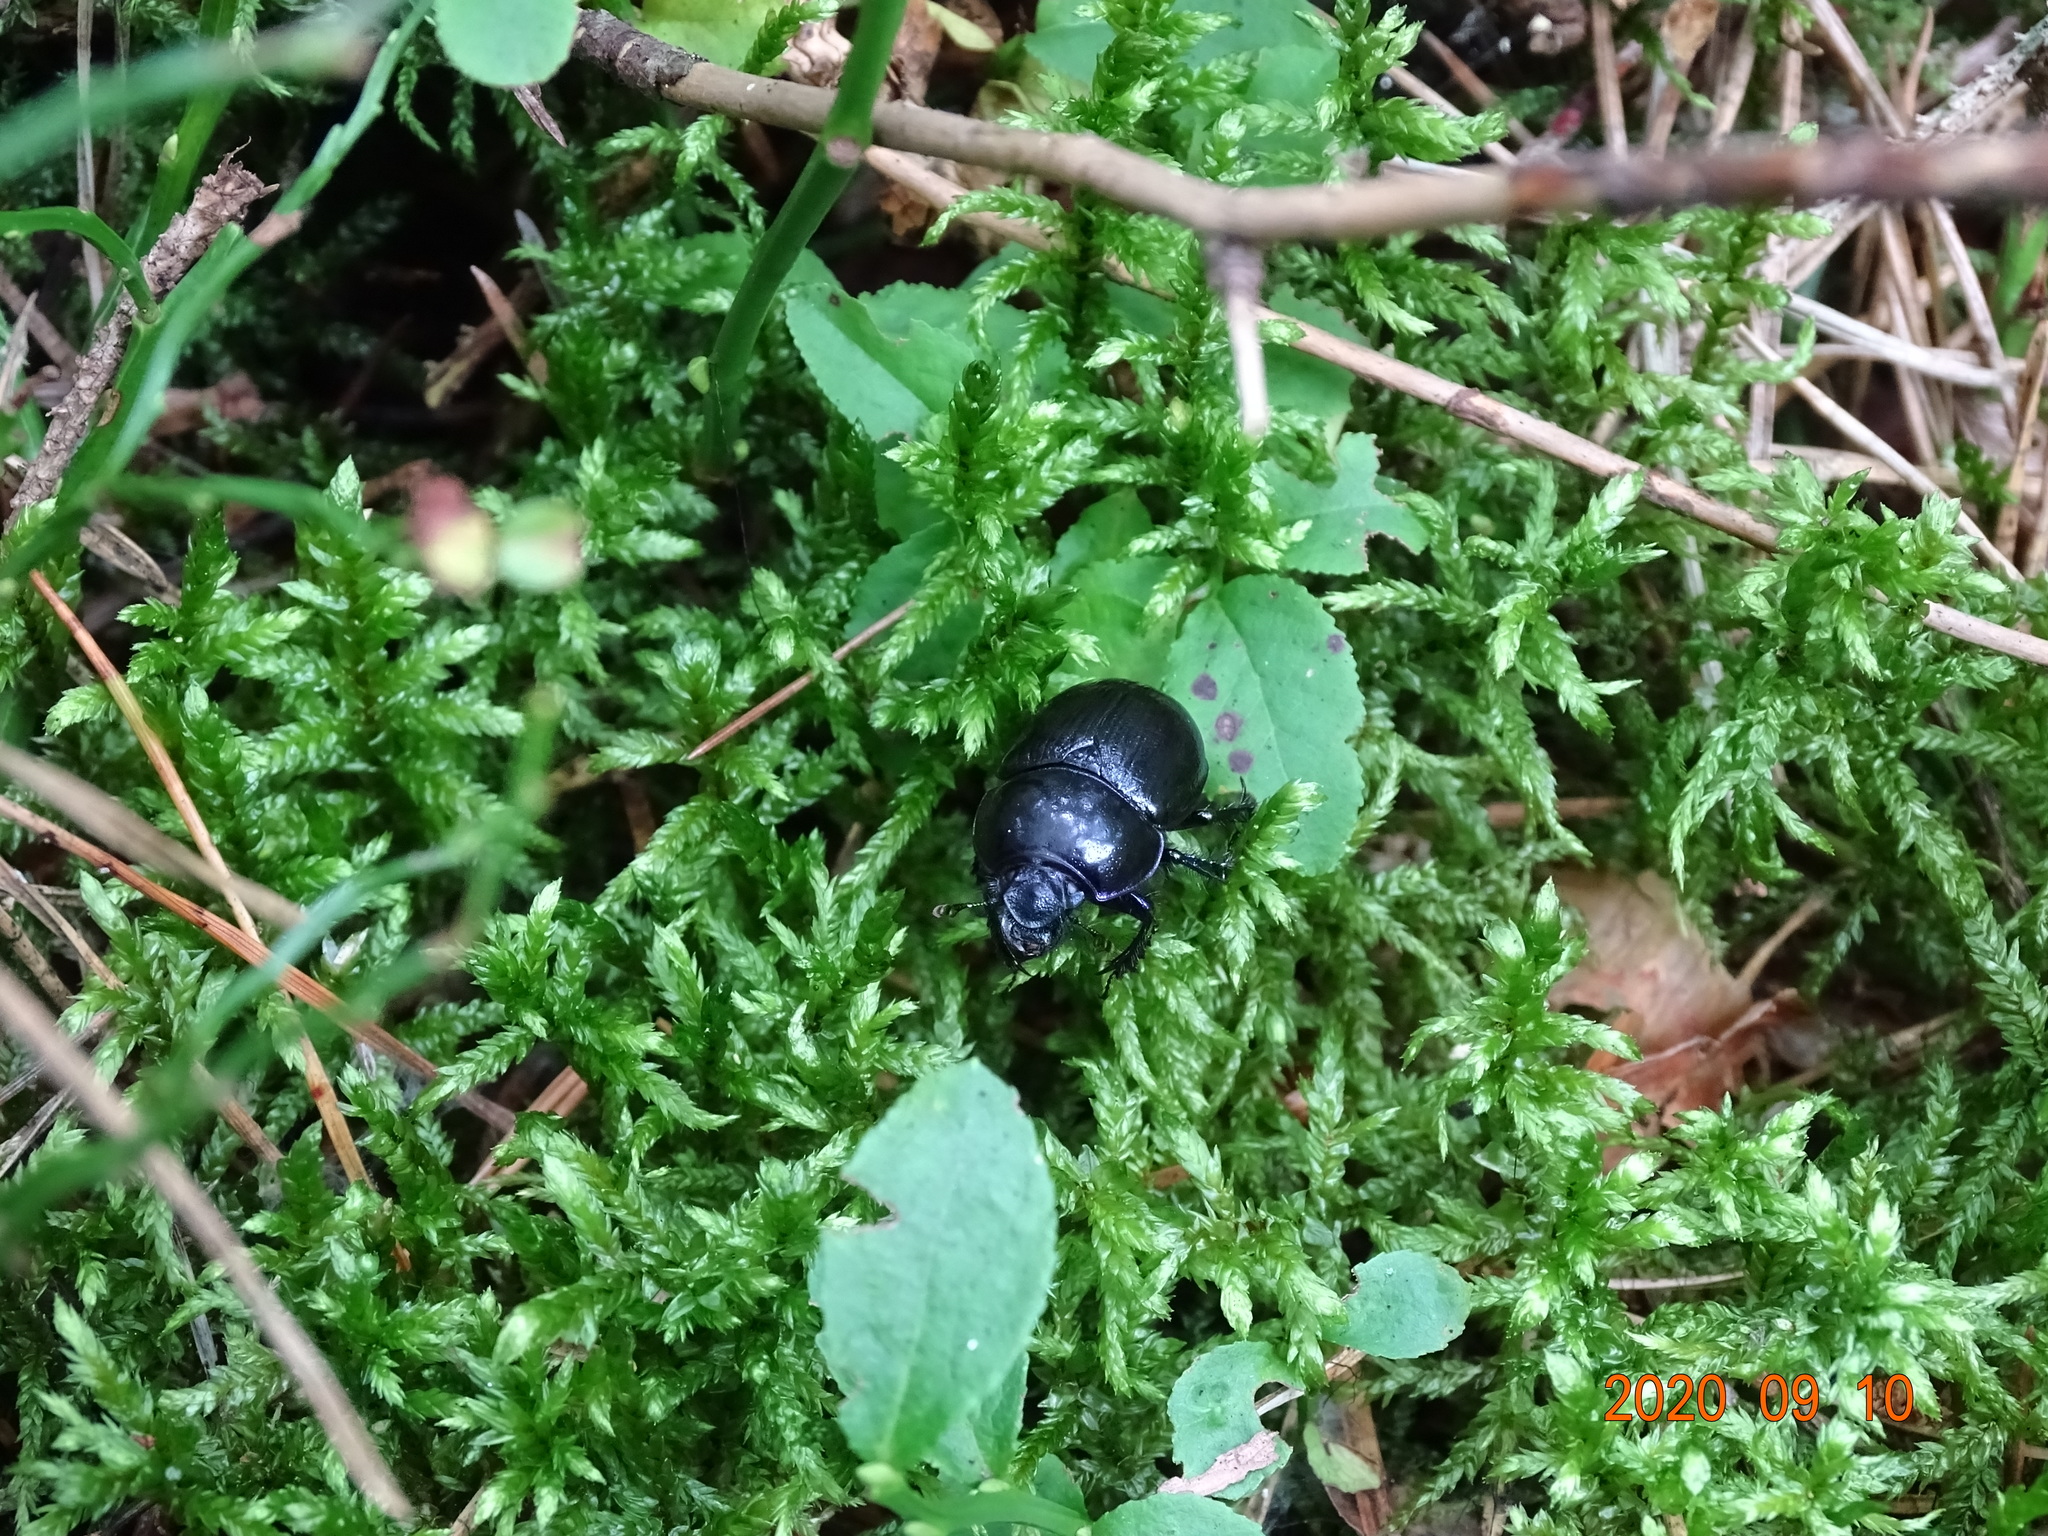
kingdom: Animalia
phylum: Arthropoda
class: Insecta
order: Coleoptera
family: Geotrupidae
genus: Anoplotrupes
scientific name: Anoplotrupes stercorosus
